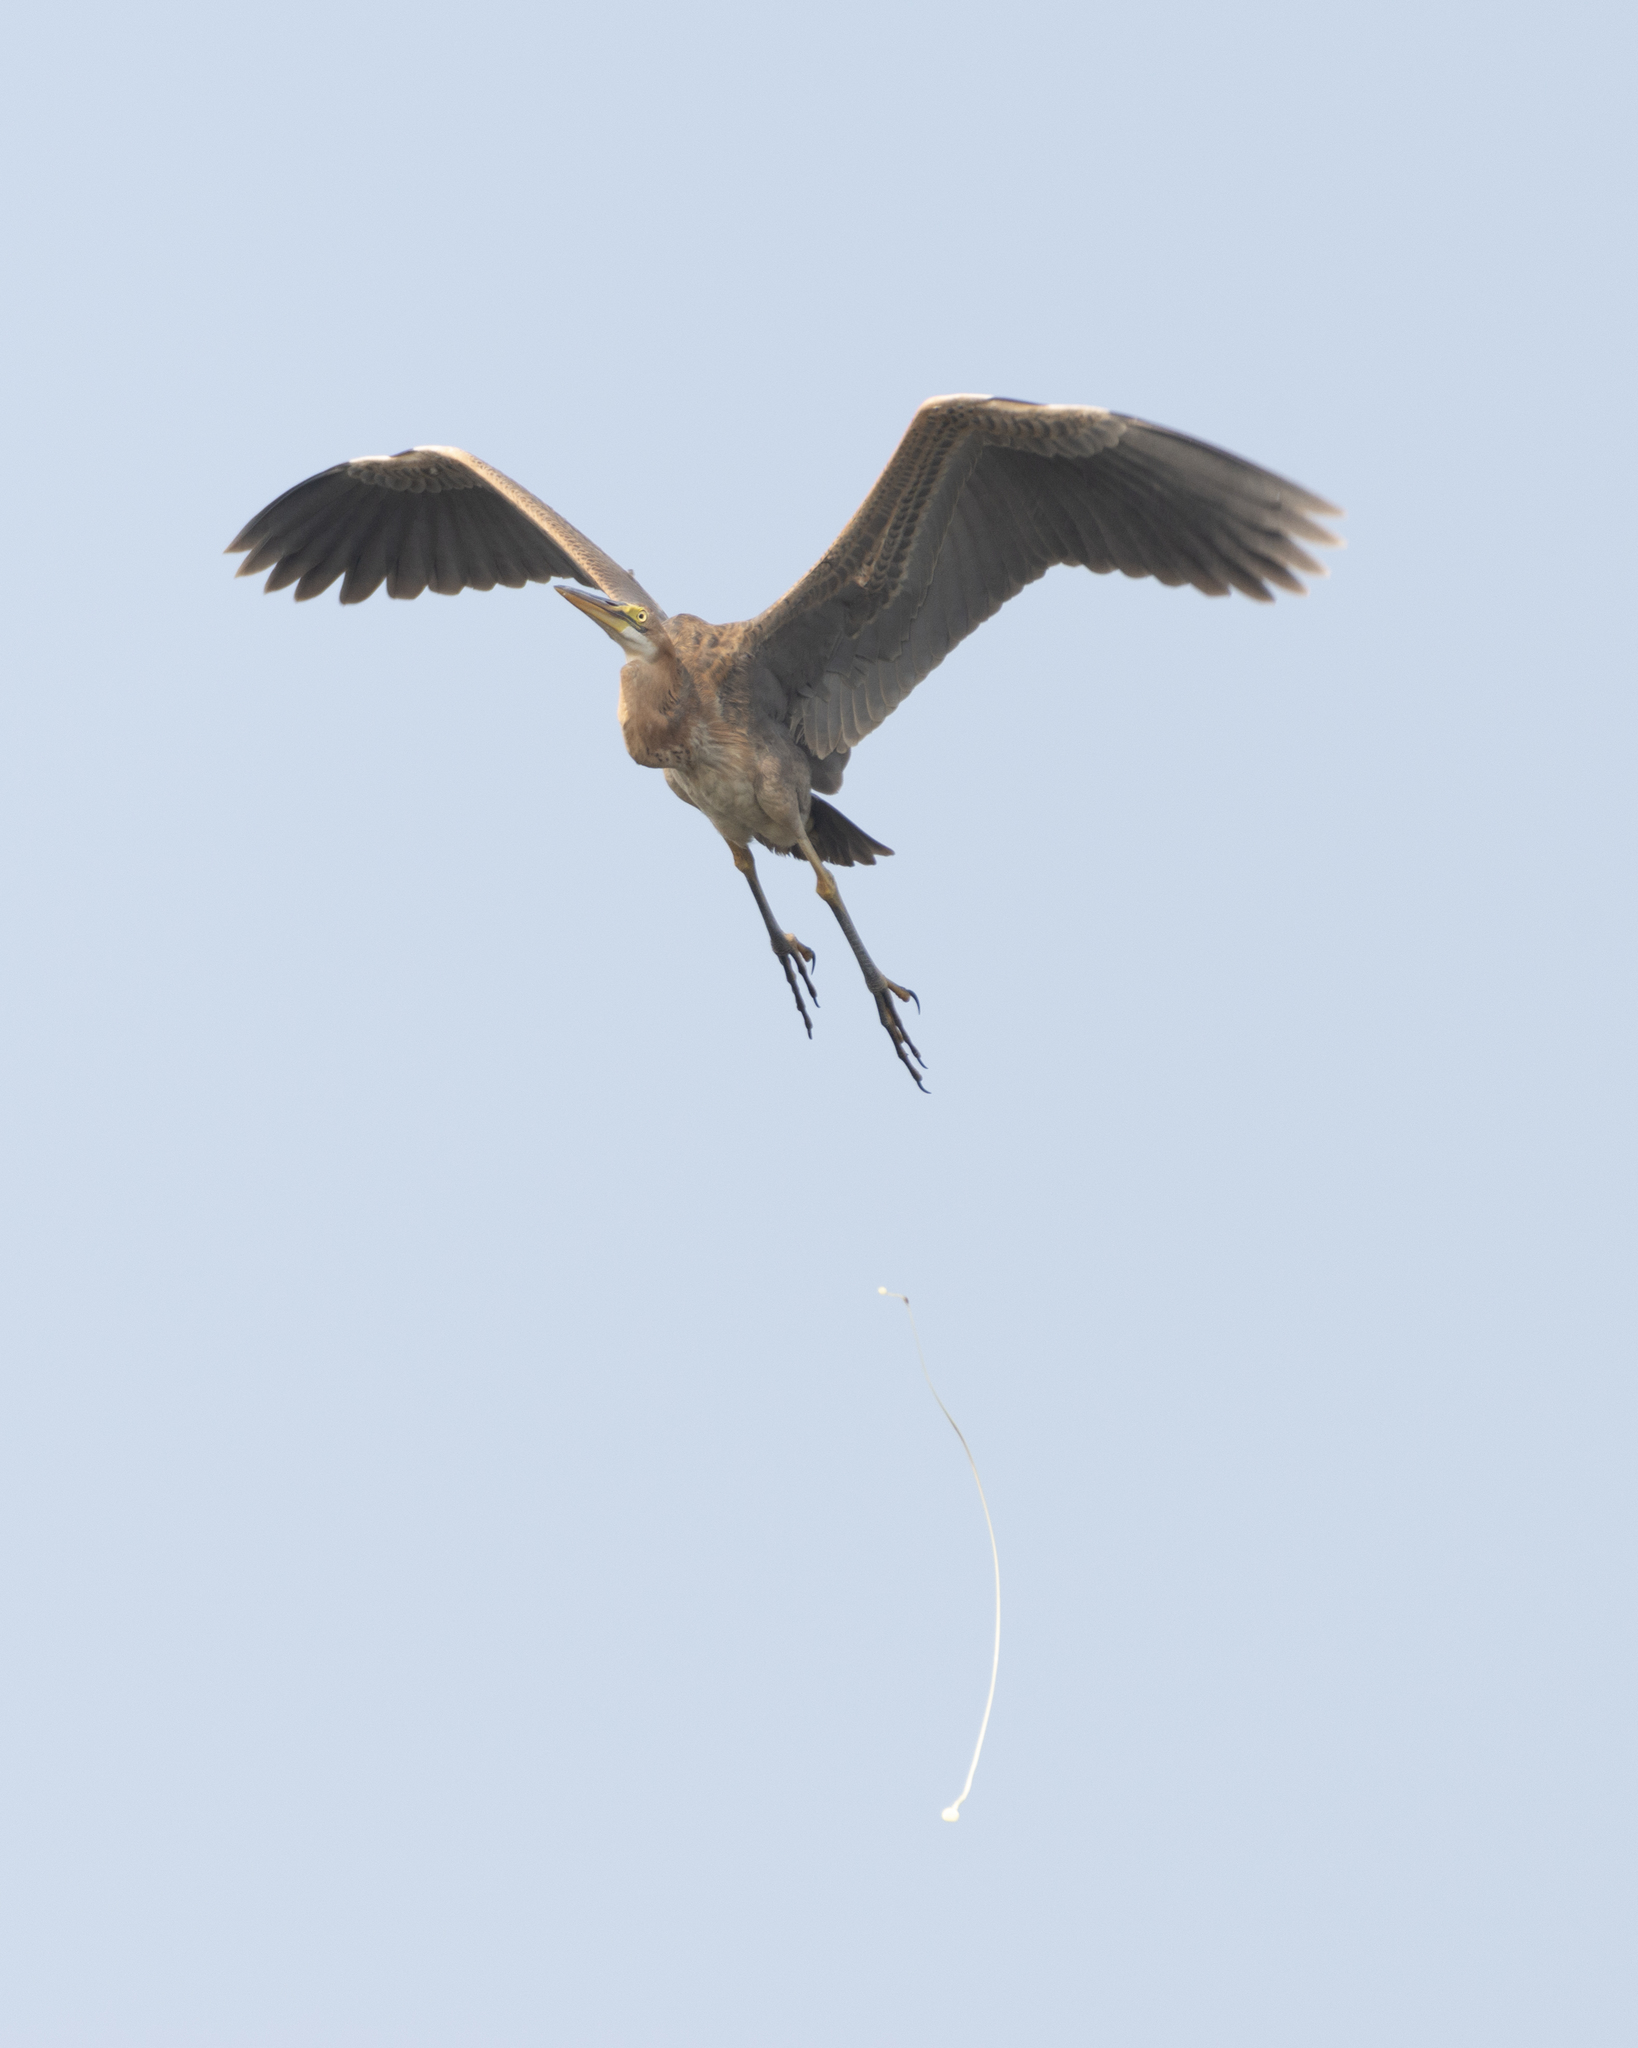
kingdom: Animalia
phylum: Chordata
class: Aves
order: Pelecaniformes
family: Ardeidae
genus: Ardea
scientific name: Ardea purpurea
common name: Purple heron
